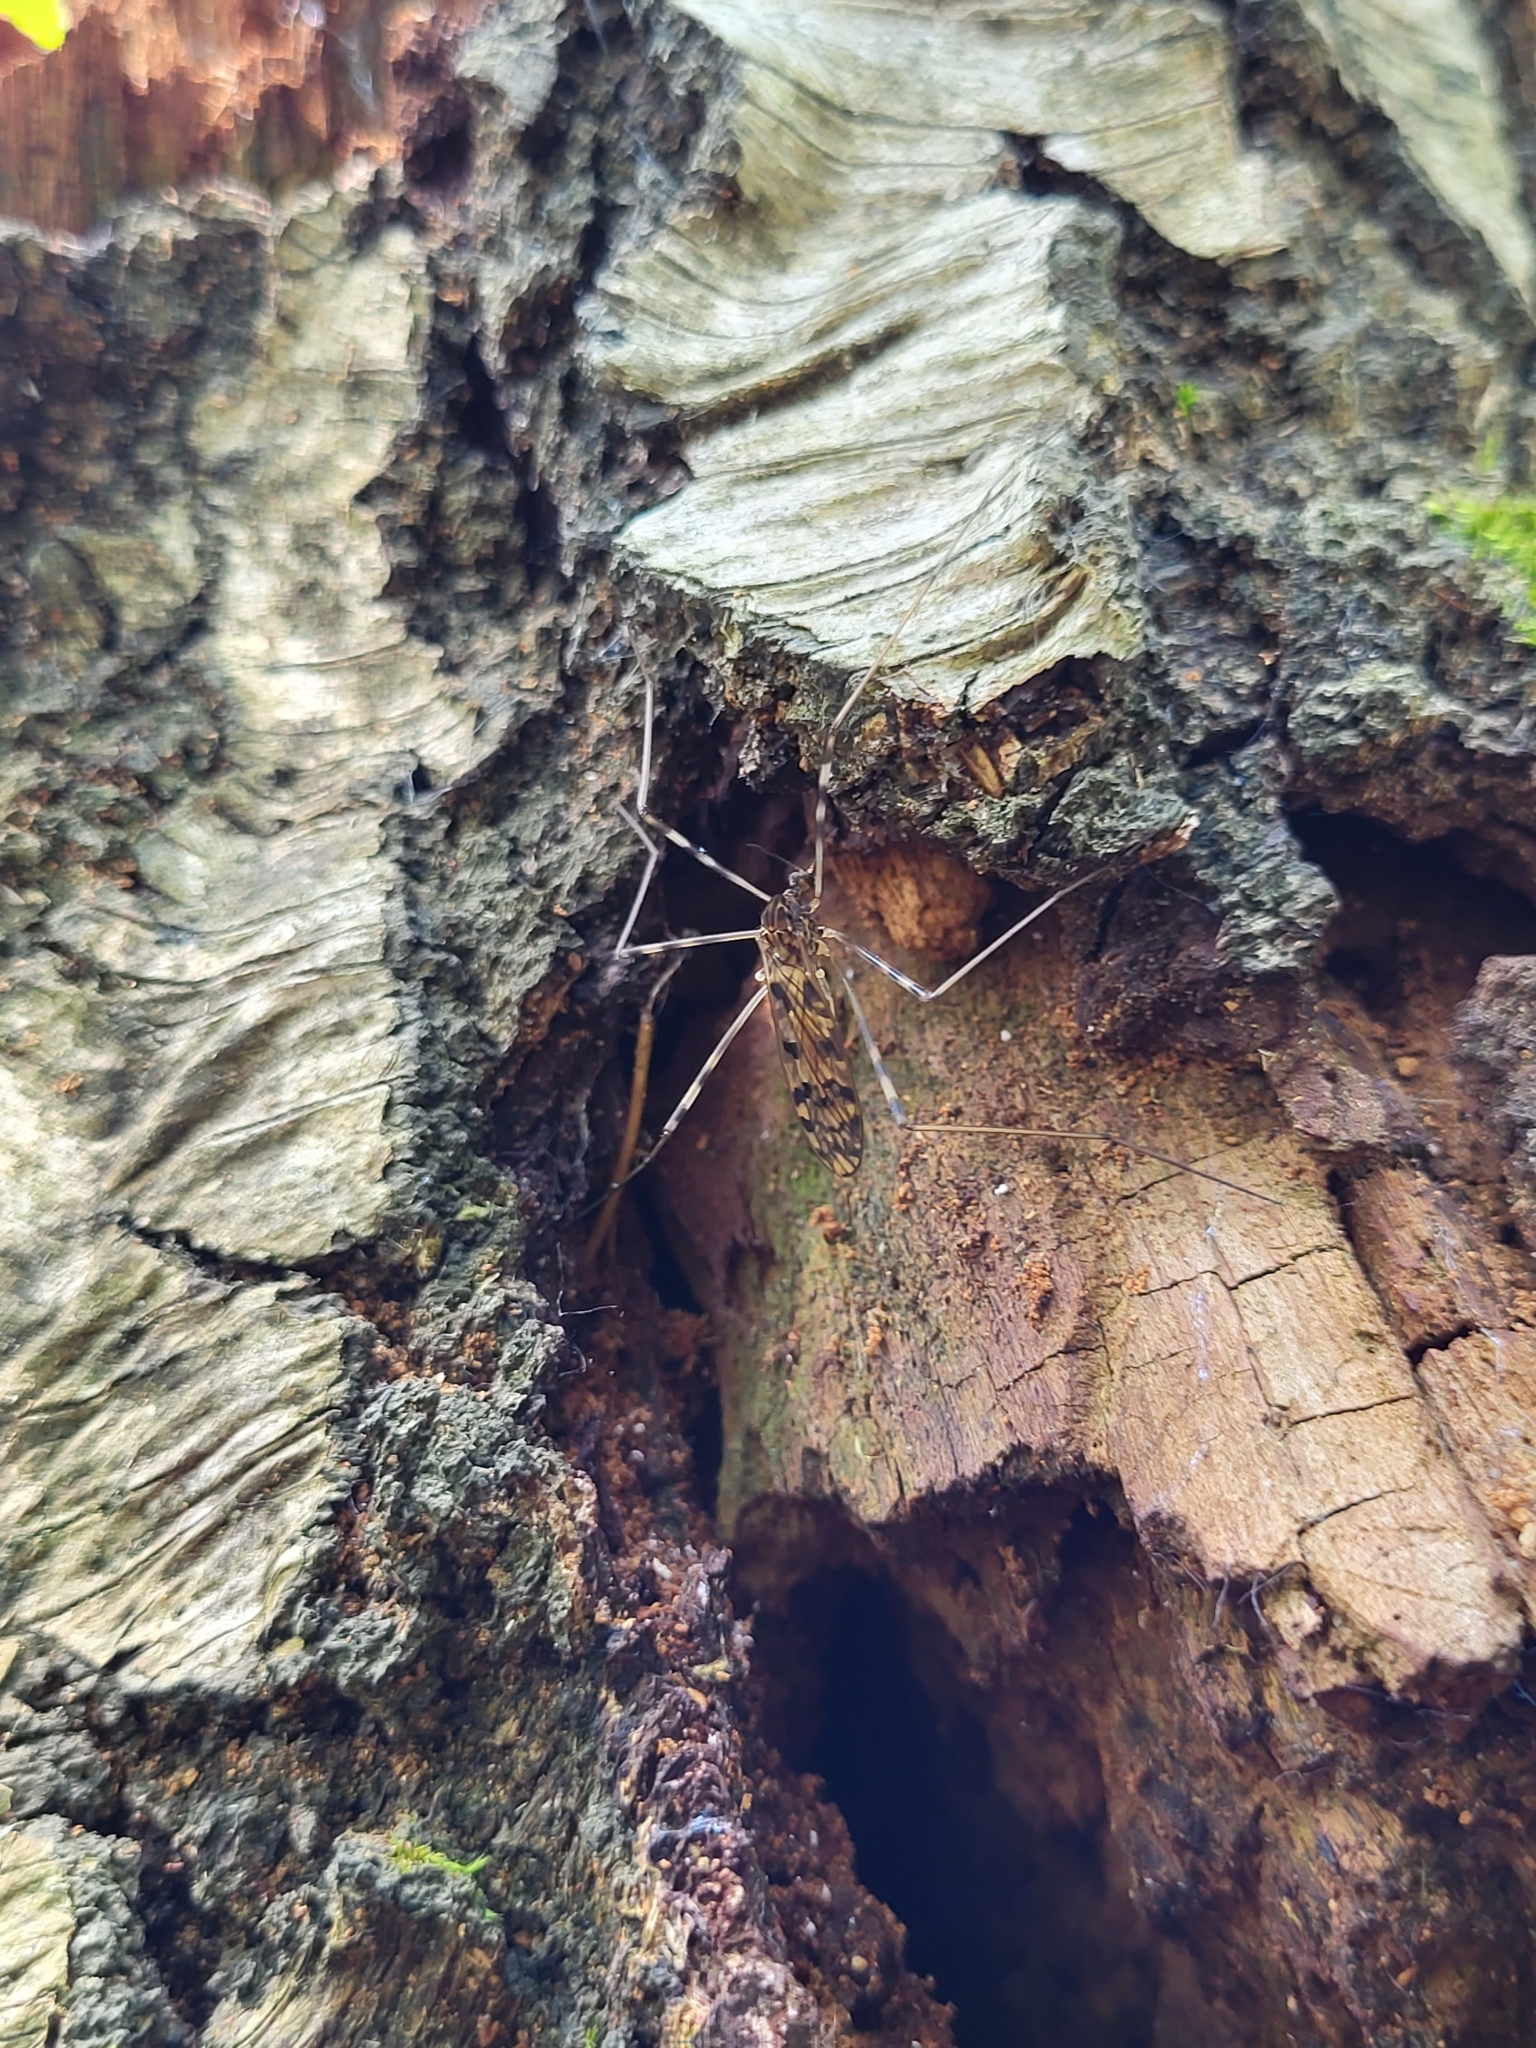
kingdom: Animalia
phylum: Arthropoda
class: Insecta
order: Diptera
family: Limoniidae
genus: Metalimnobia
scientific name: Metalimnobia immatura
